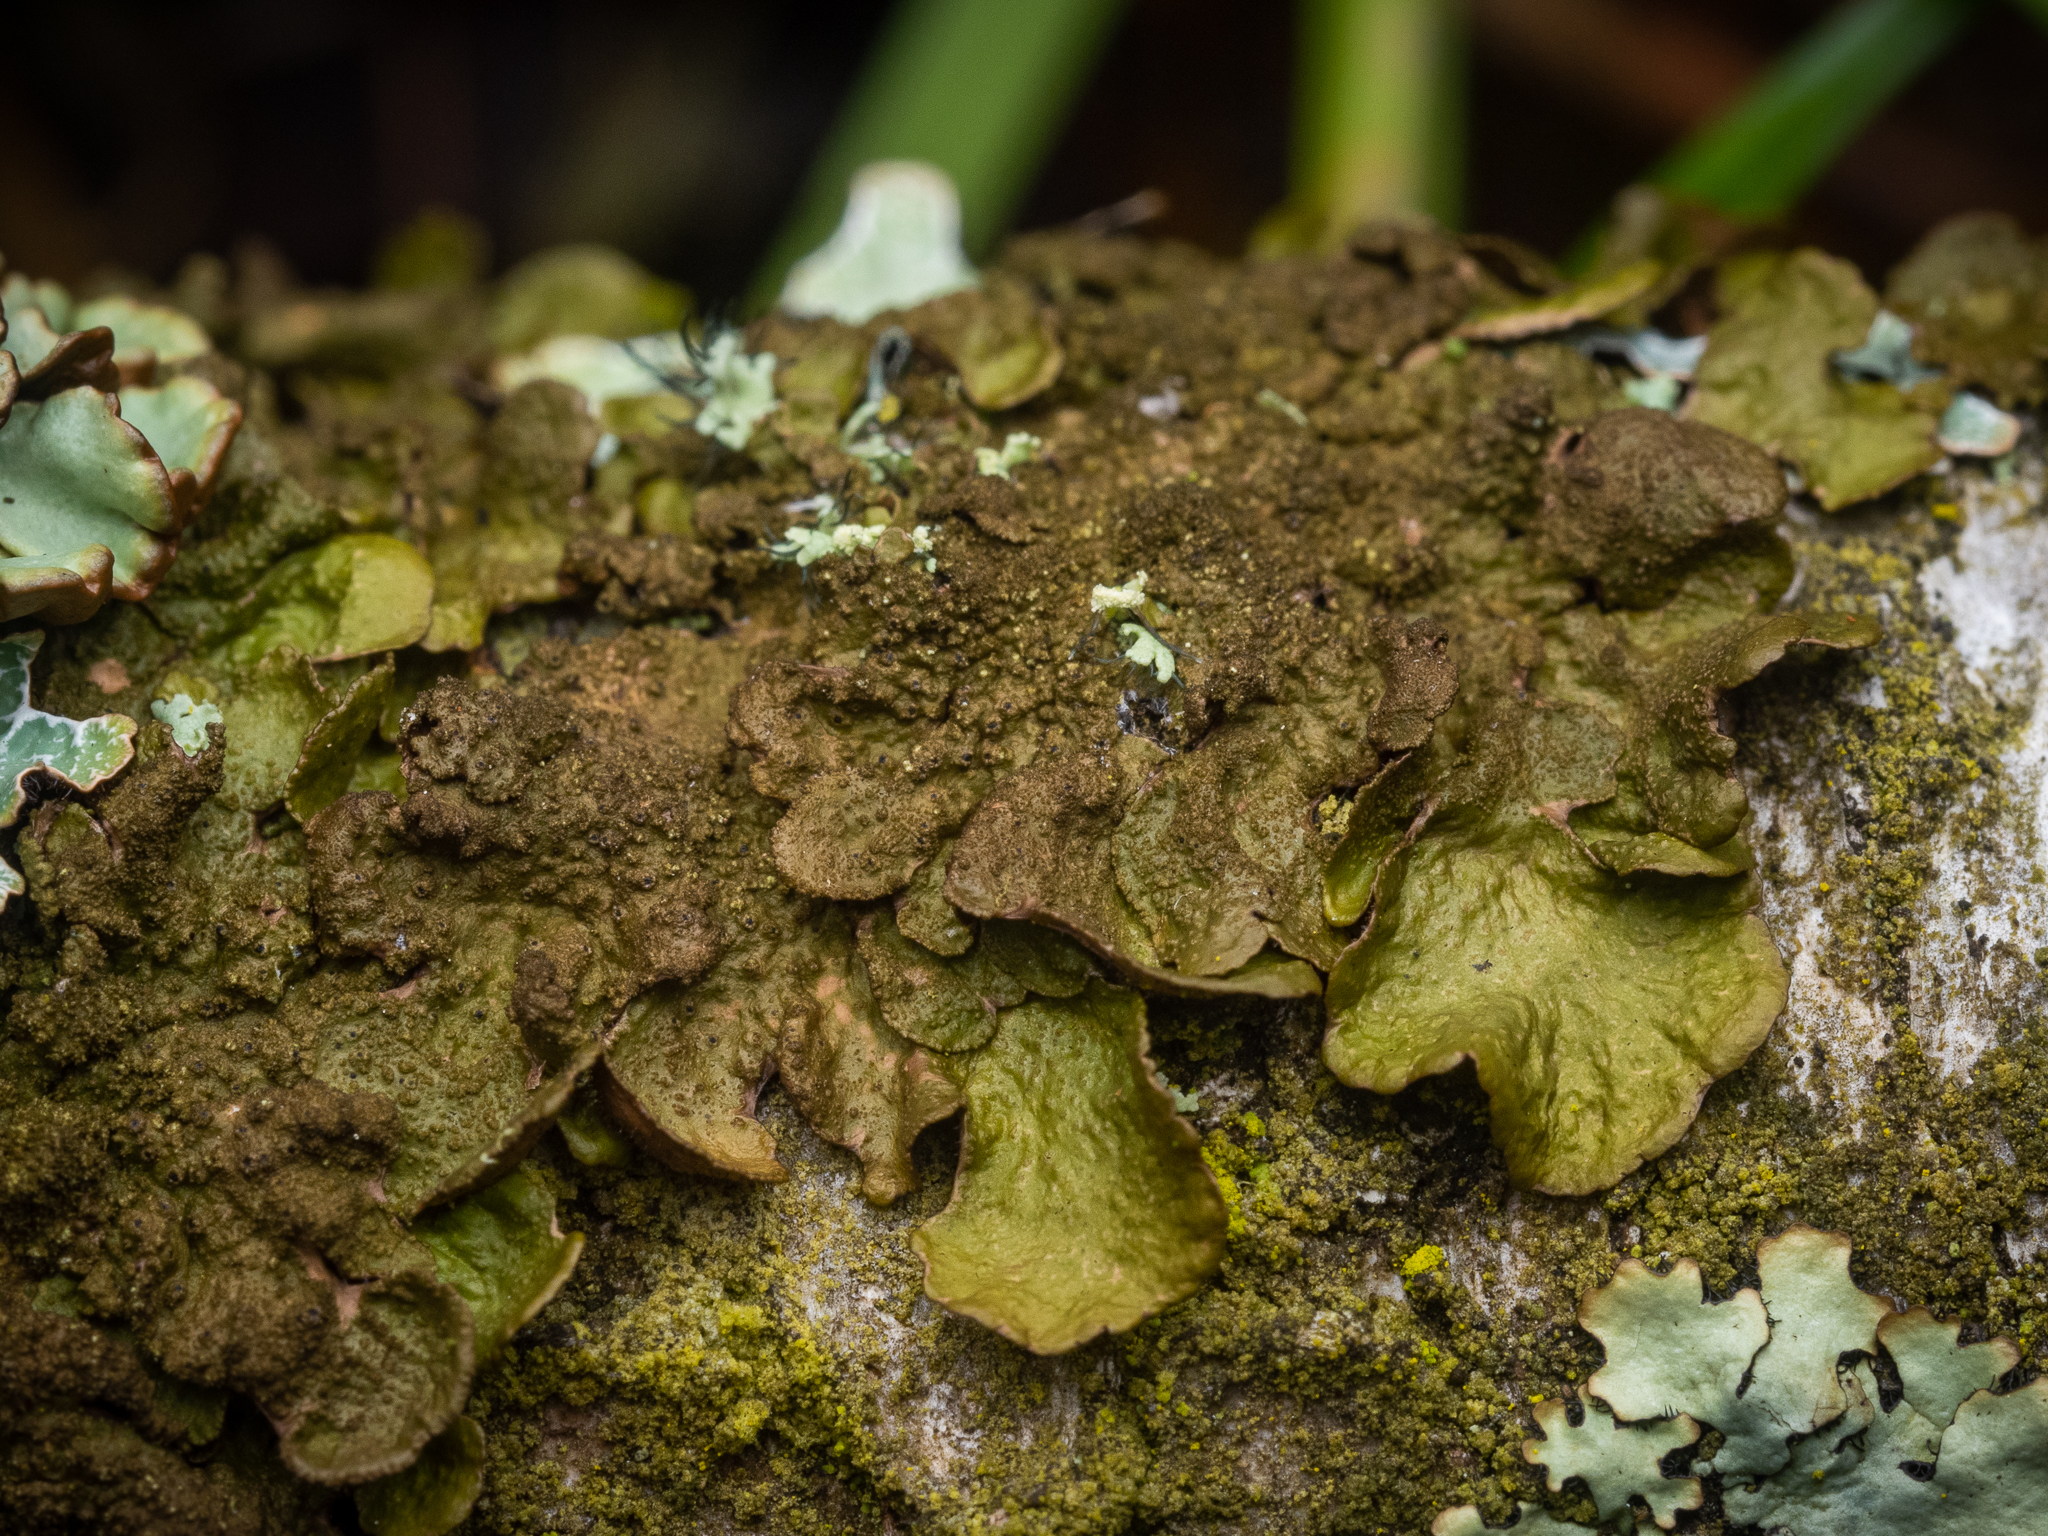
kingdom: Fungi
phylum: Ascomycota
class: Lecanoromycetes
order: Lecanorales
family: Parmeliaceae
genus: Melanelixia
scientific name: Melanelixia subaurifera
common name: Abraded camouflage lichen
